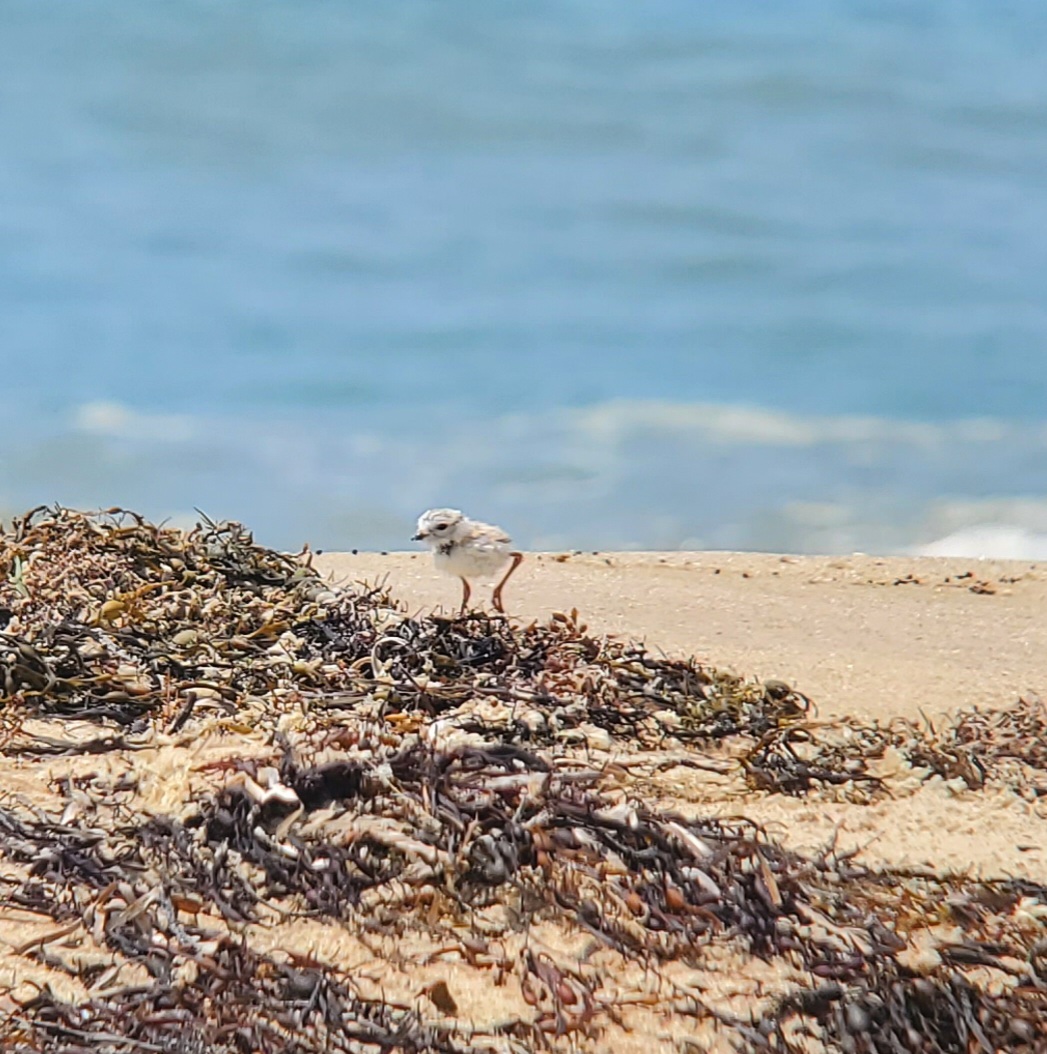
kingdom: Animalia
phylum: Chordata
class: Aves
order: Charadriiformes
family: Charadriidae
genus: Charadrius
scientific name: Charadrius melodus
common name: Piping plover
